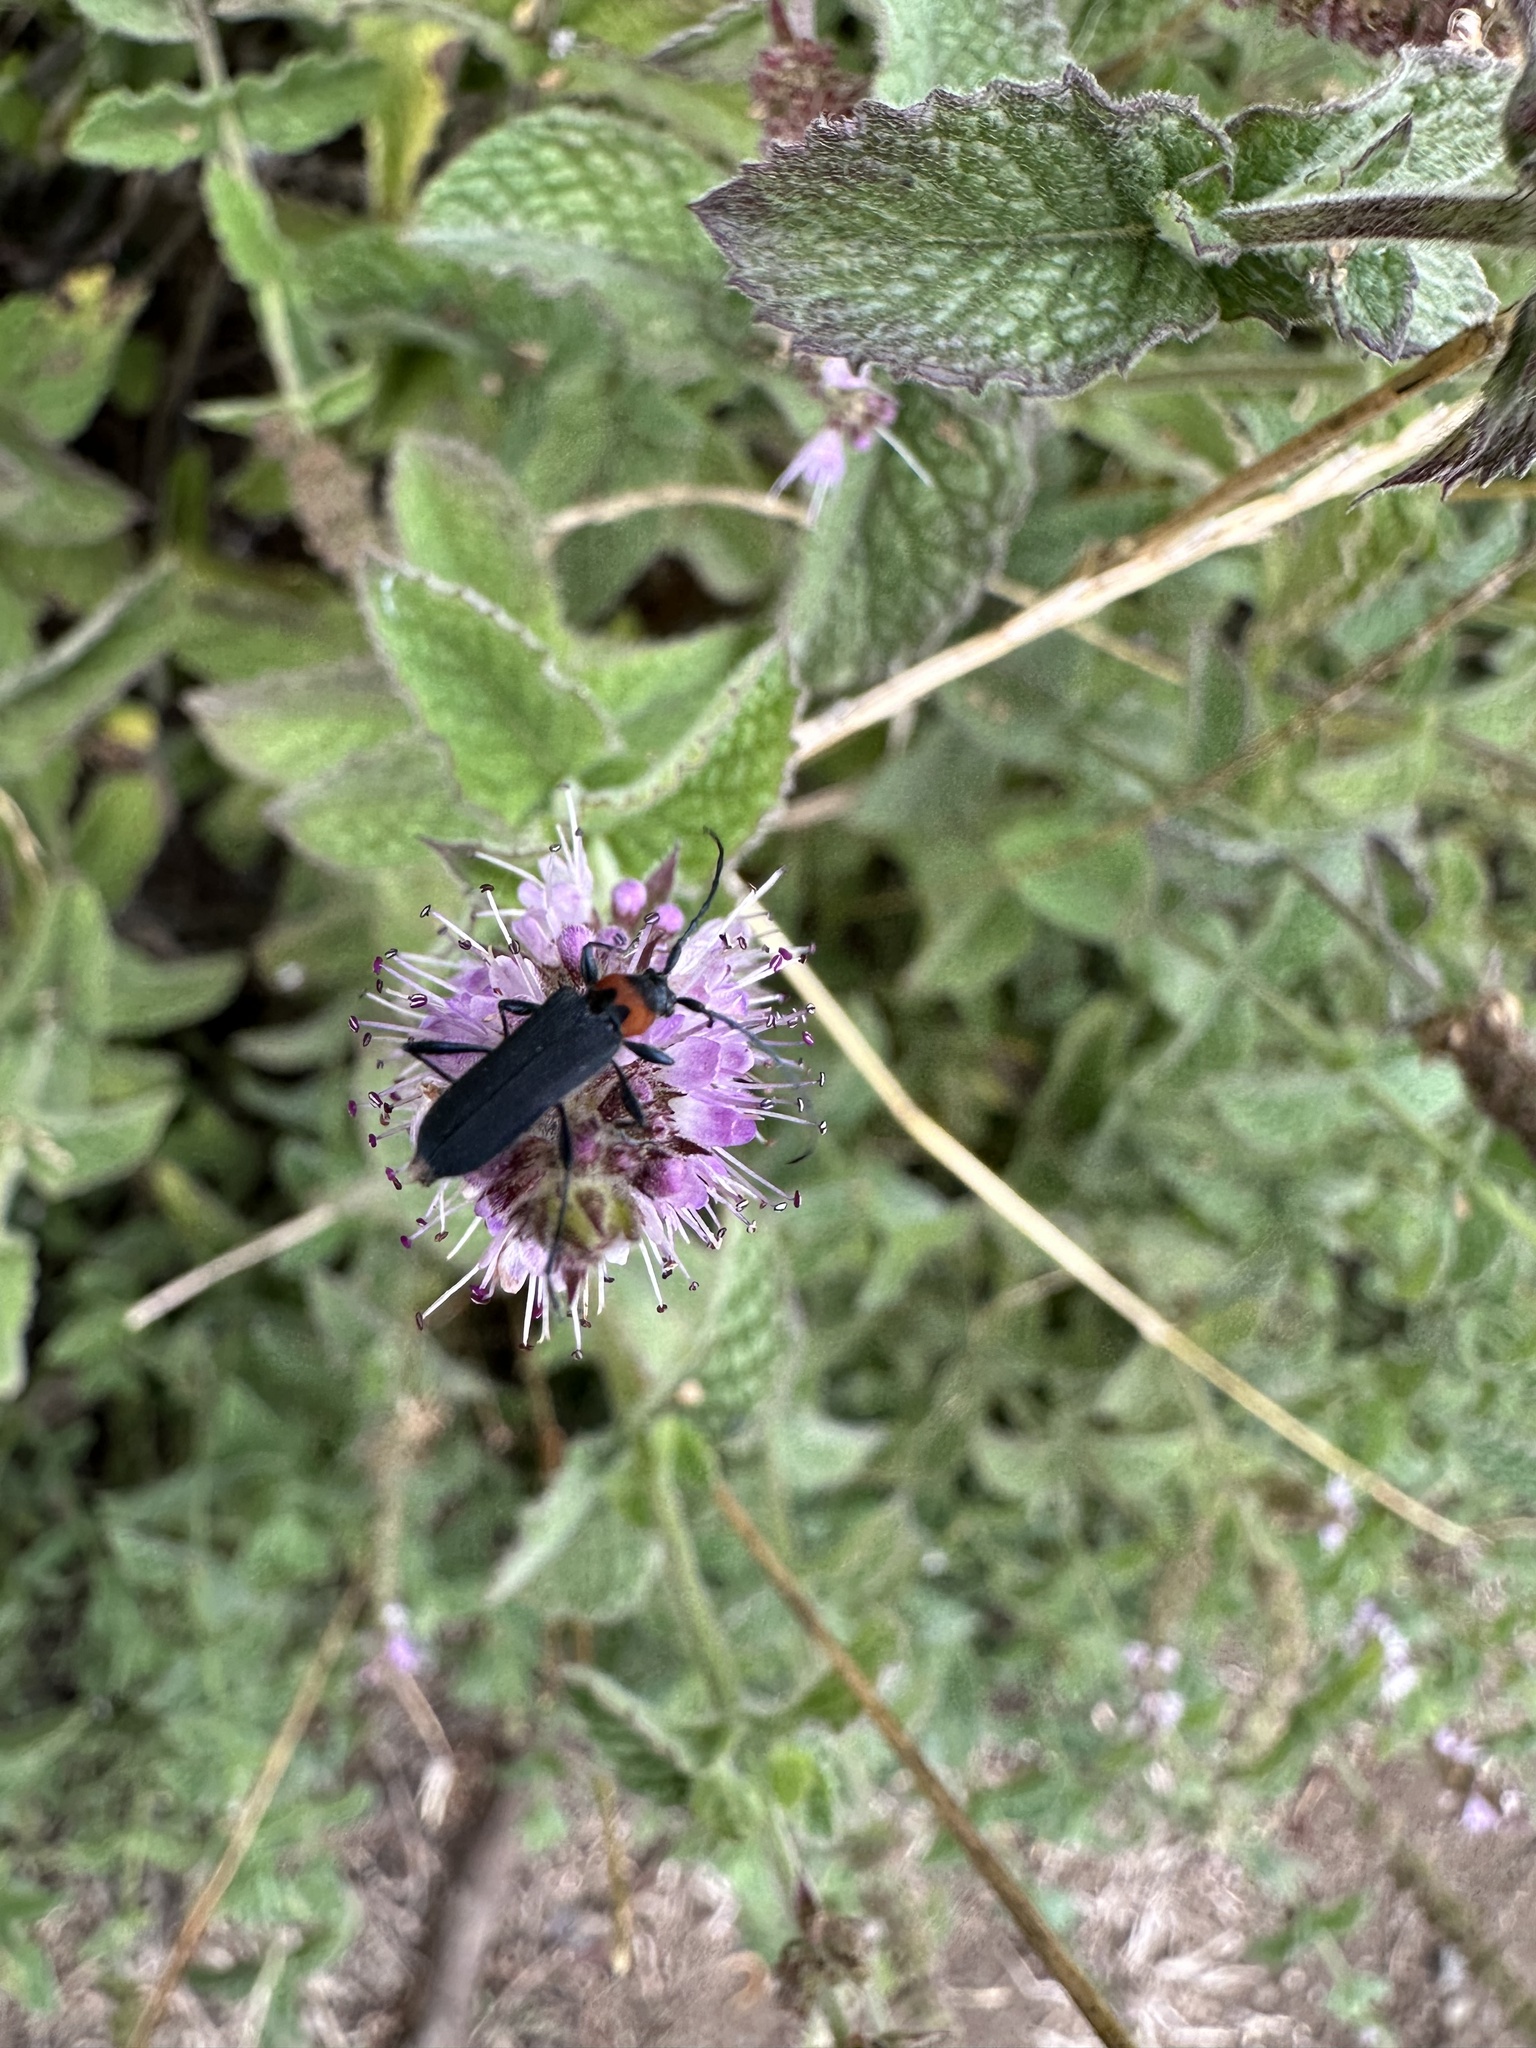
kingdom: Animalia
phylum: Arthropoda
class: Insecta
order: Coleoptera
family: Cerambycidae
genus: Eryphus
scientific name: Eryphus laetus
